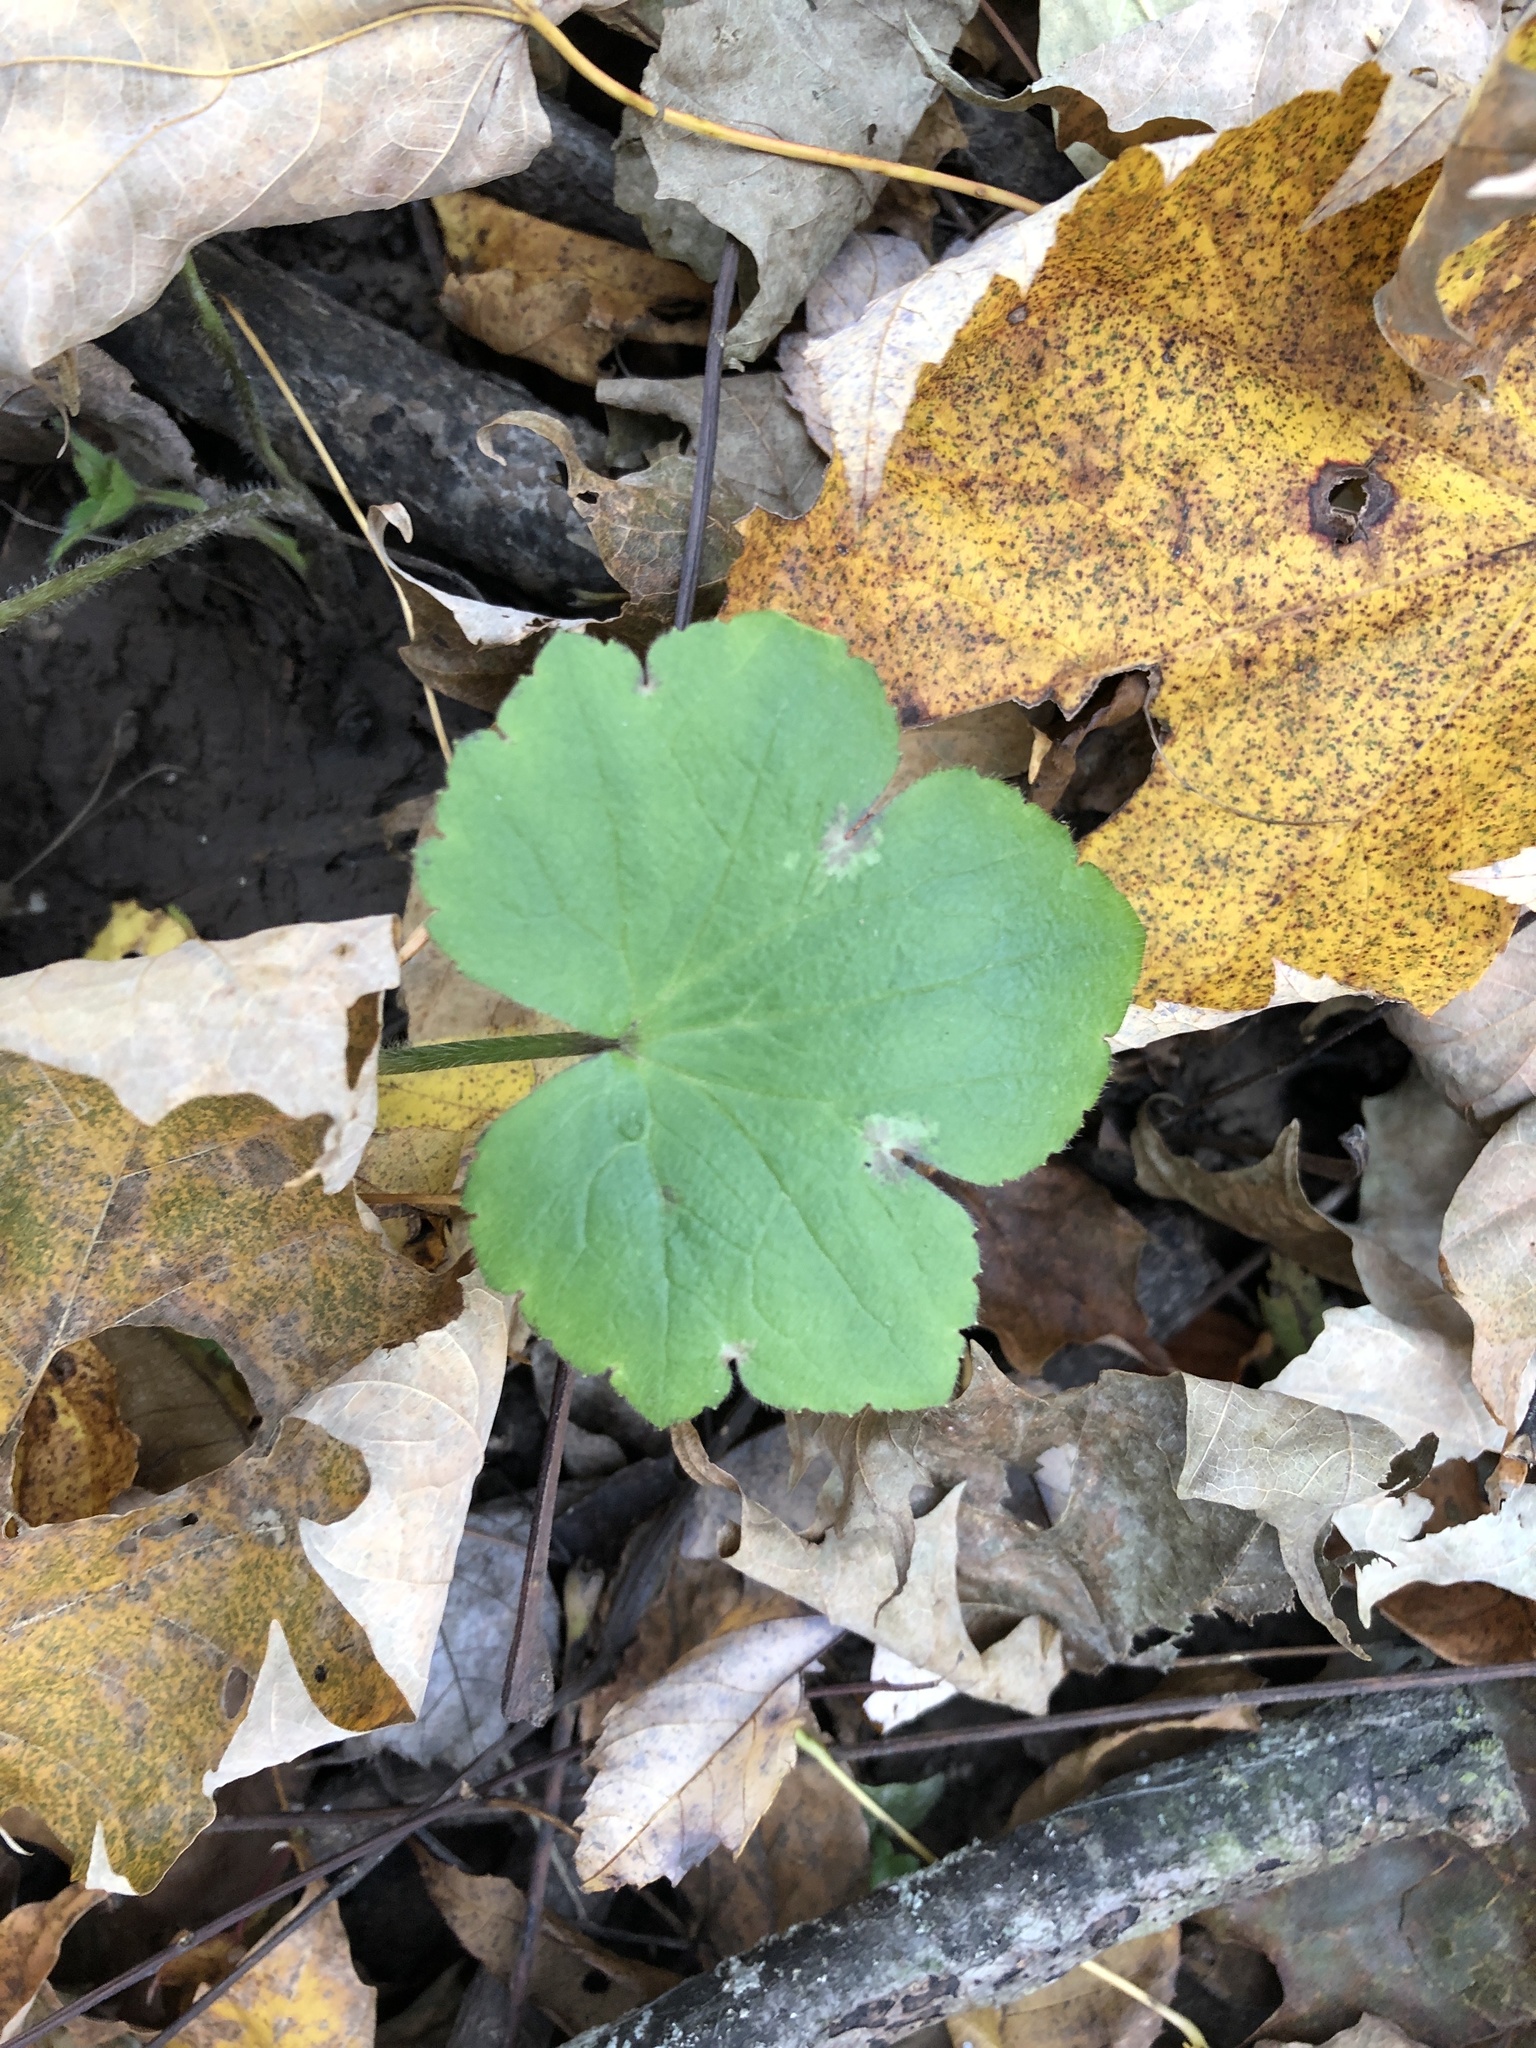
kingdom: Plantae
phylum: Tracheophyta
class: Magnoliopsida
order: Ranunculales
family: Ranunculaceae
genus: Ranunculus
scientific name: Ranunculus recurvatus
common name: Blisterwort
